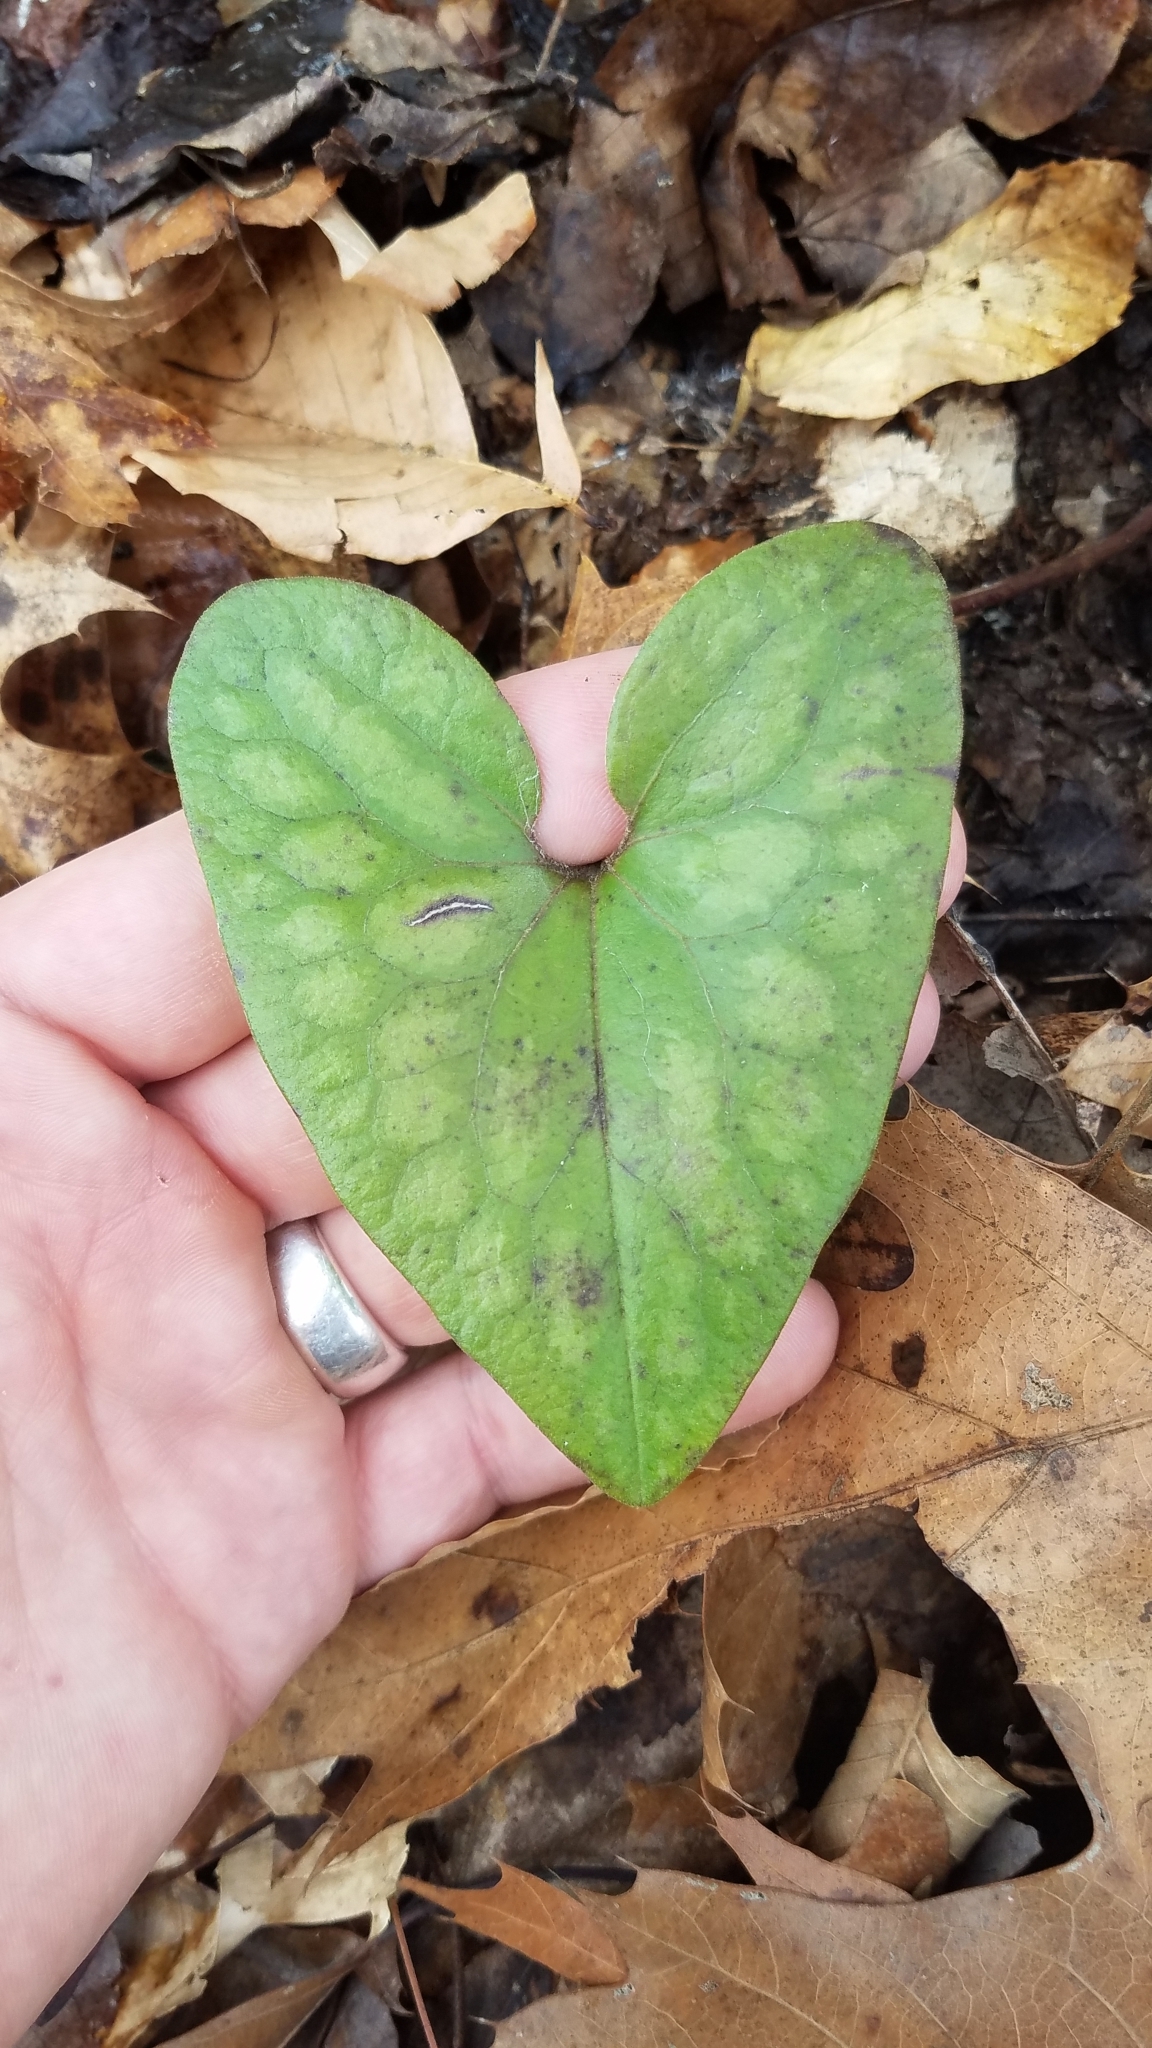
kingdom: Plantae
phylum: Tracheophyta
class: Magnoliopsida
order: Piperales
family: Aristolochiaceae
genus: Hexastylis
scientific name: Hexastylis arifolia
